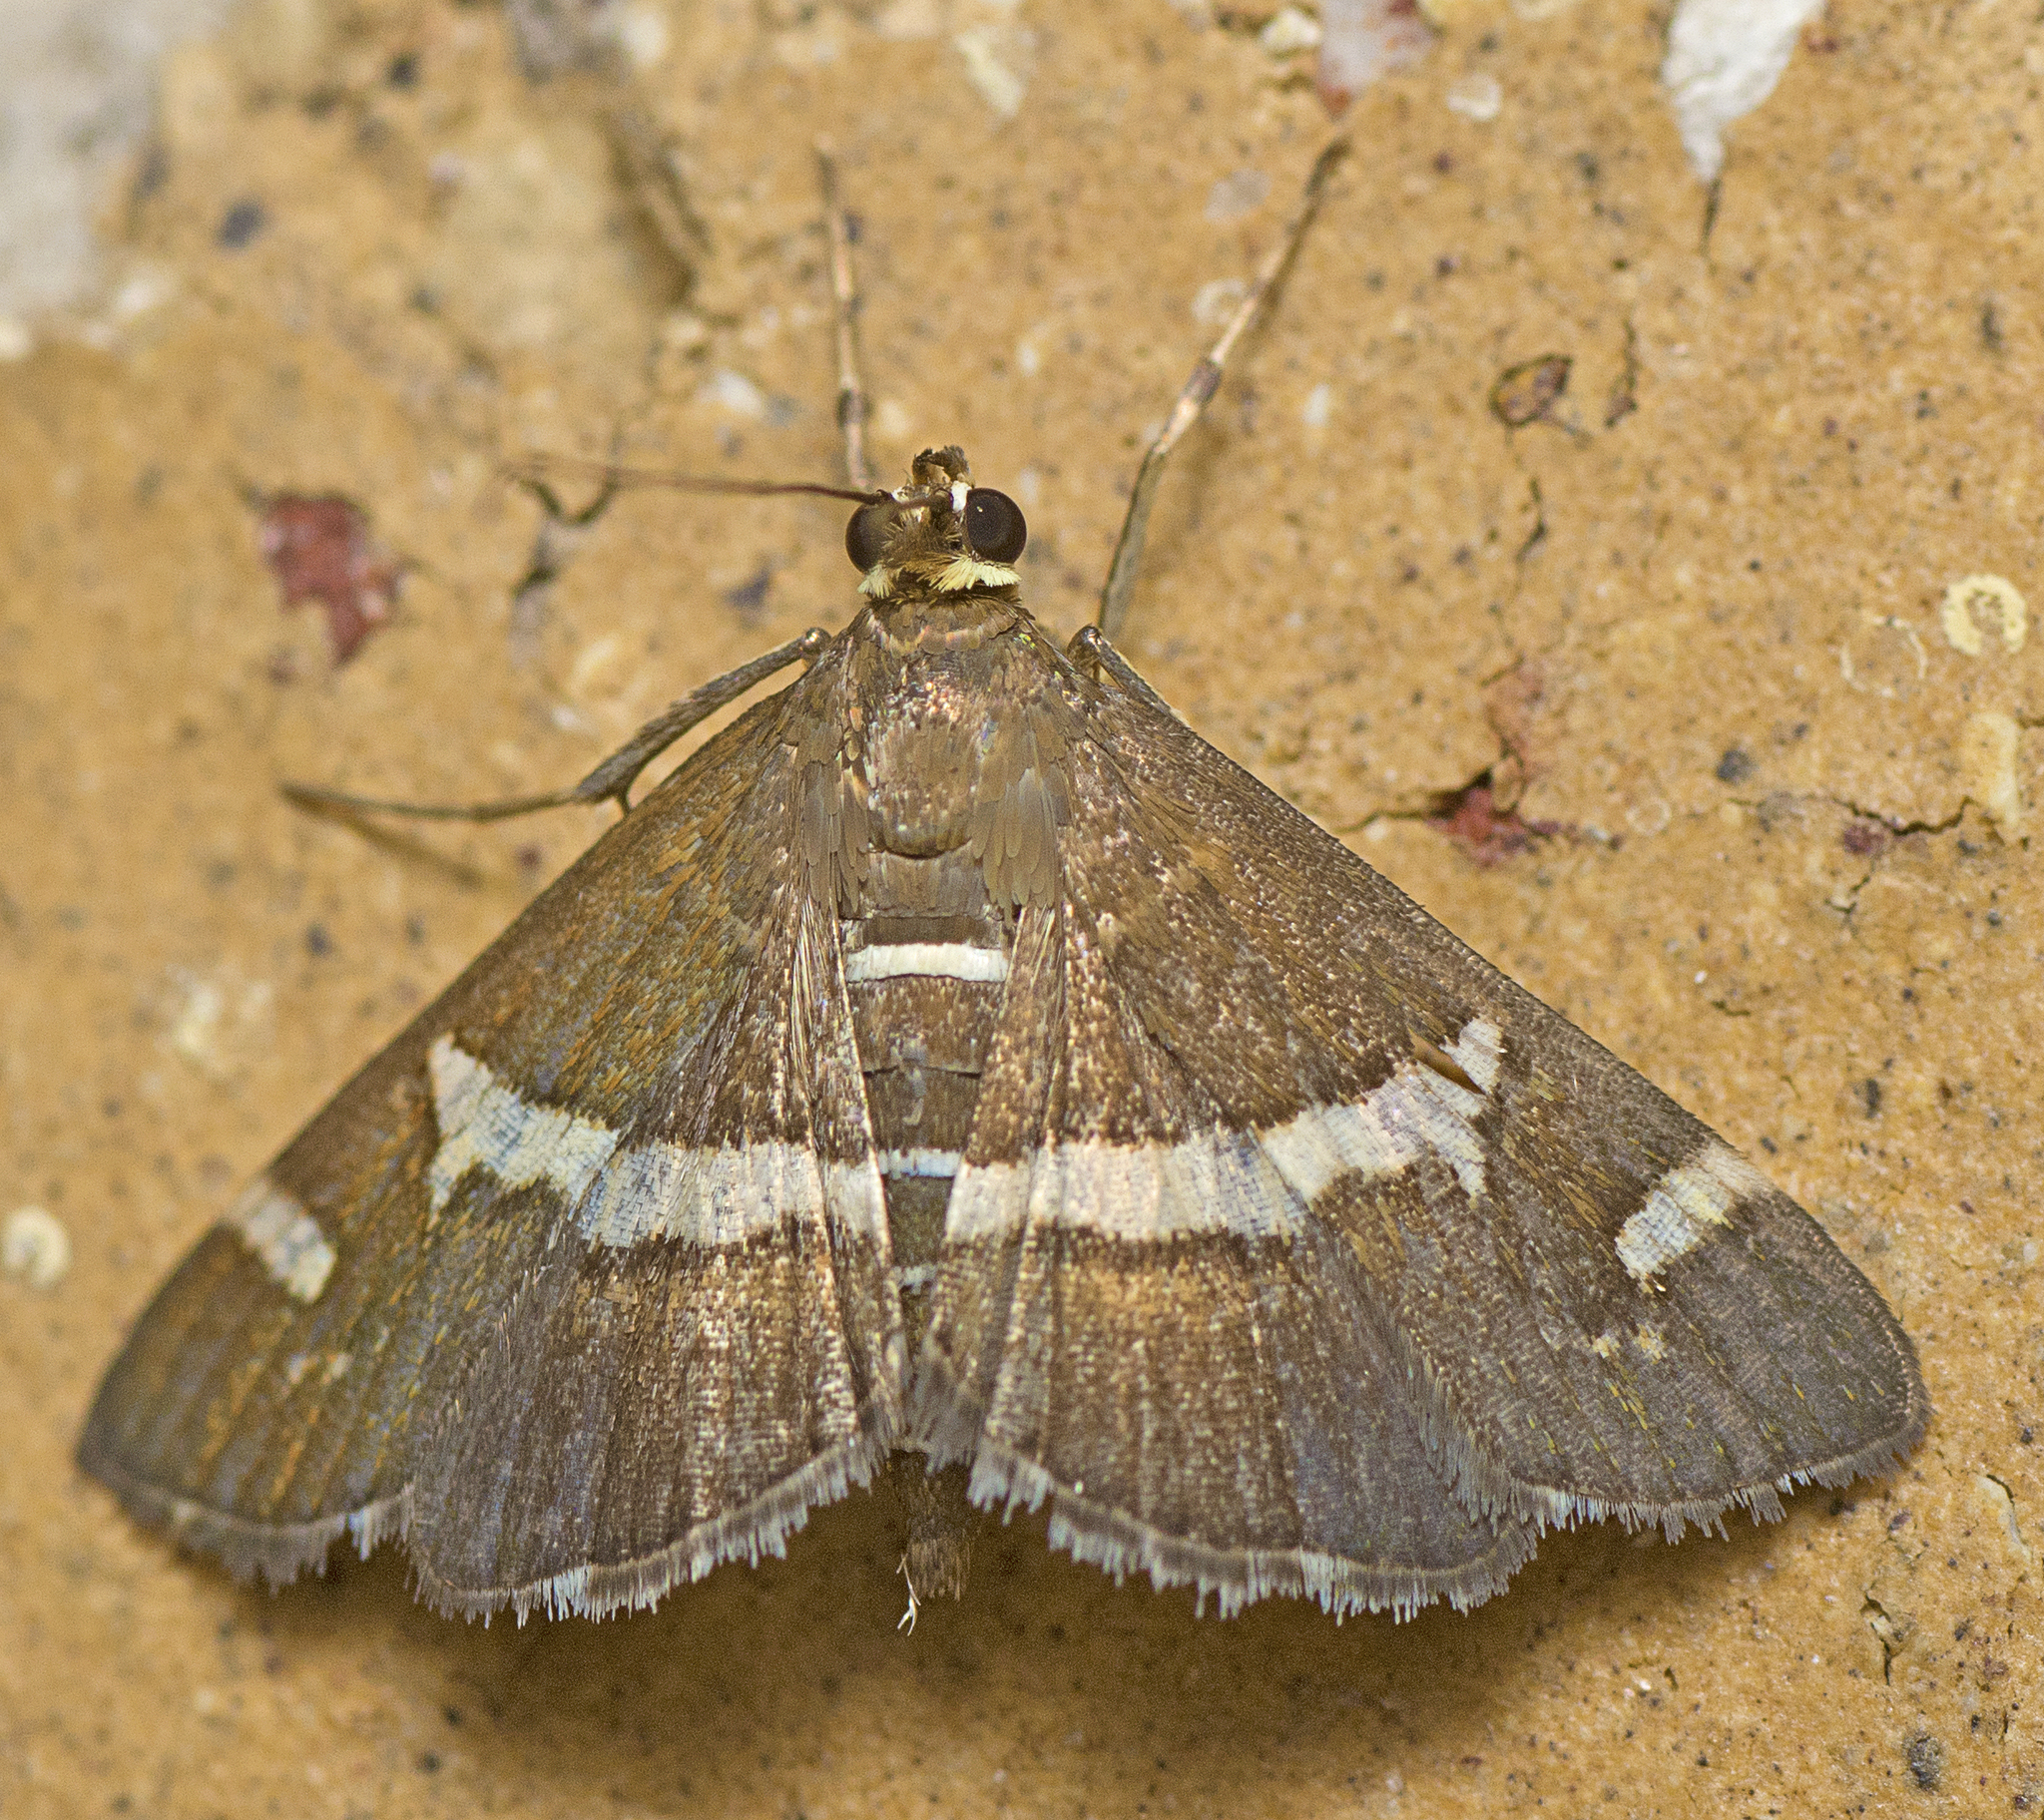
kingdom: Animalia
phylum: Arthropoda
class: Insecta
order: Lepidoptera
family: Crambidae
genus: Spoladea
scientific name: Spoladea recurvalis
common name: Beet webworm moth
